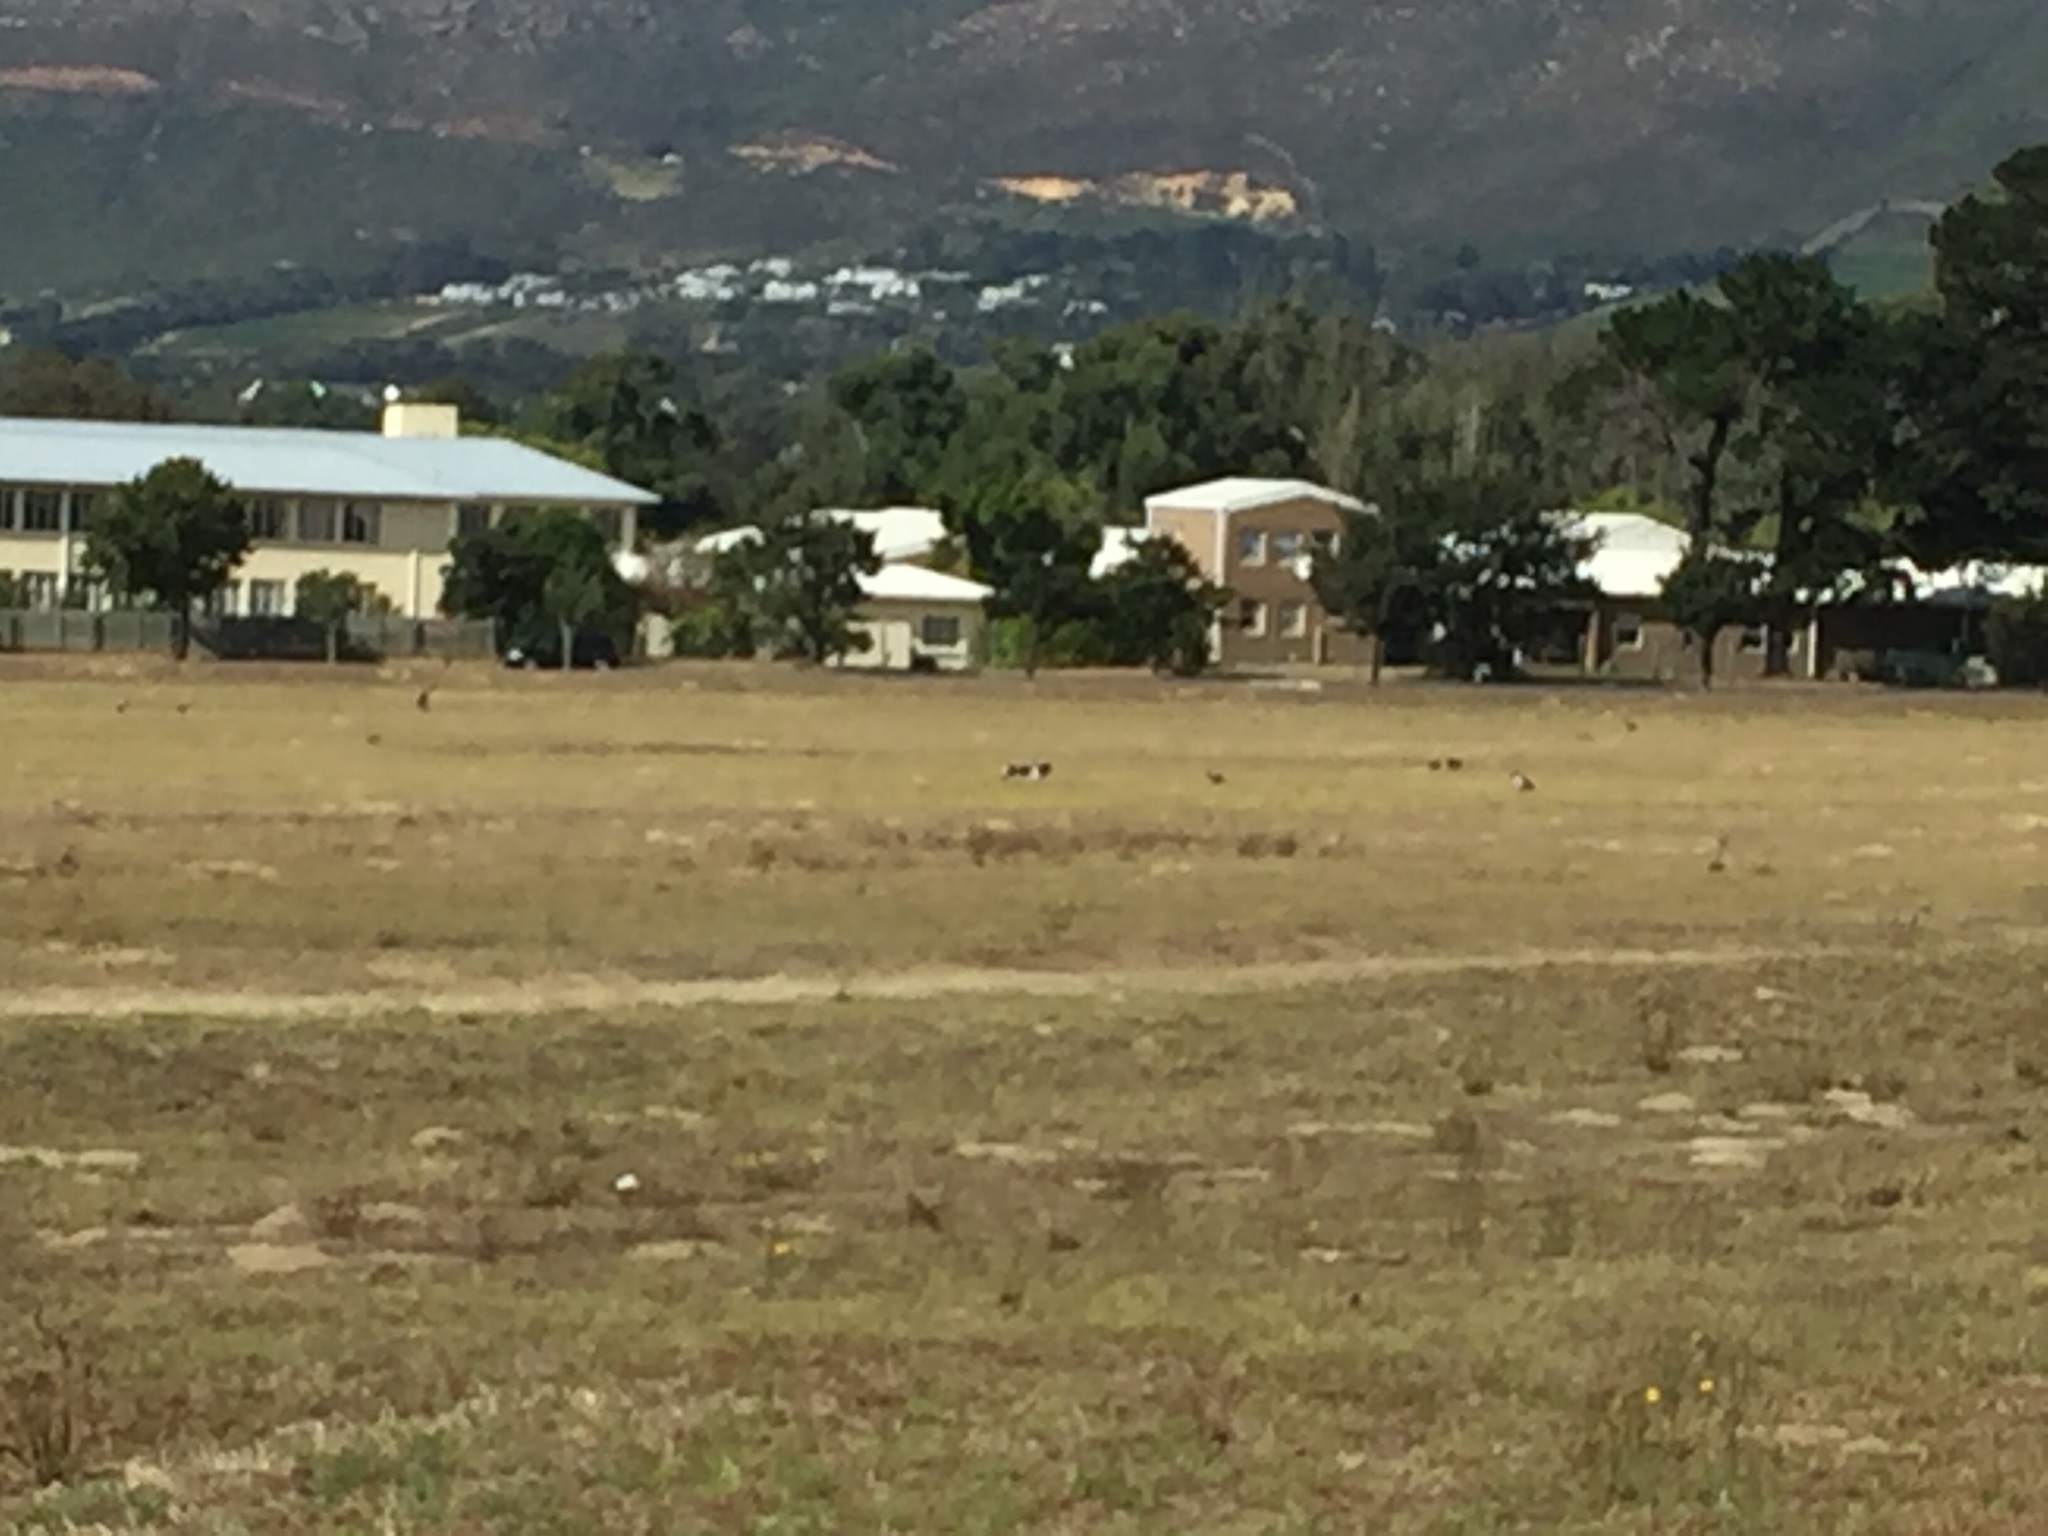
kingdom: Animalia
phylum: Chordata
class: Aves
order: Passeriformes
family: Corvidae
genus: Corvus
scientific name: Corvus albus
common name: Pied crow
